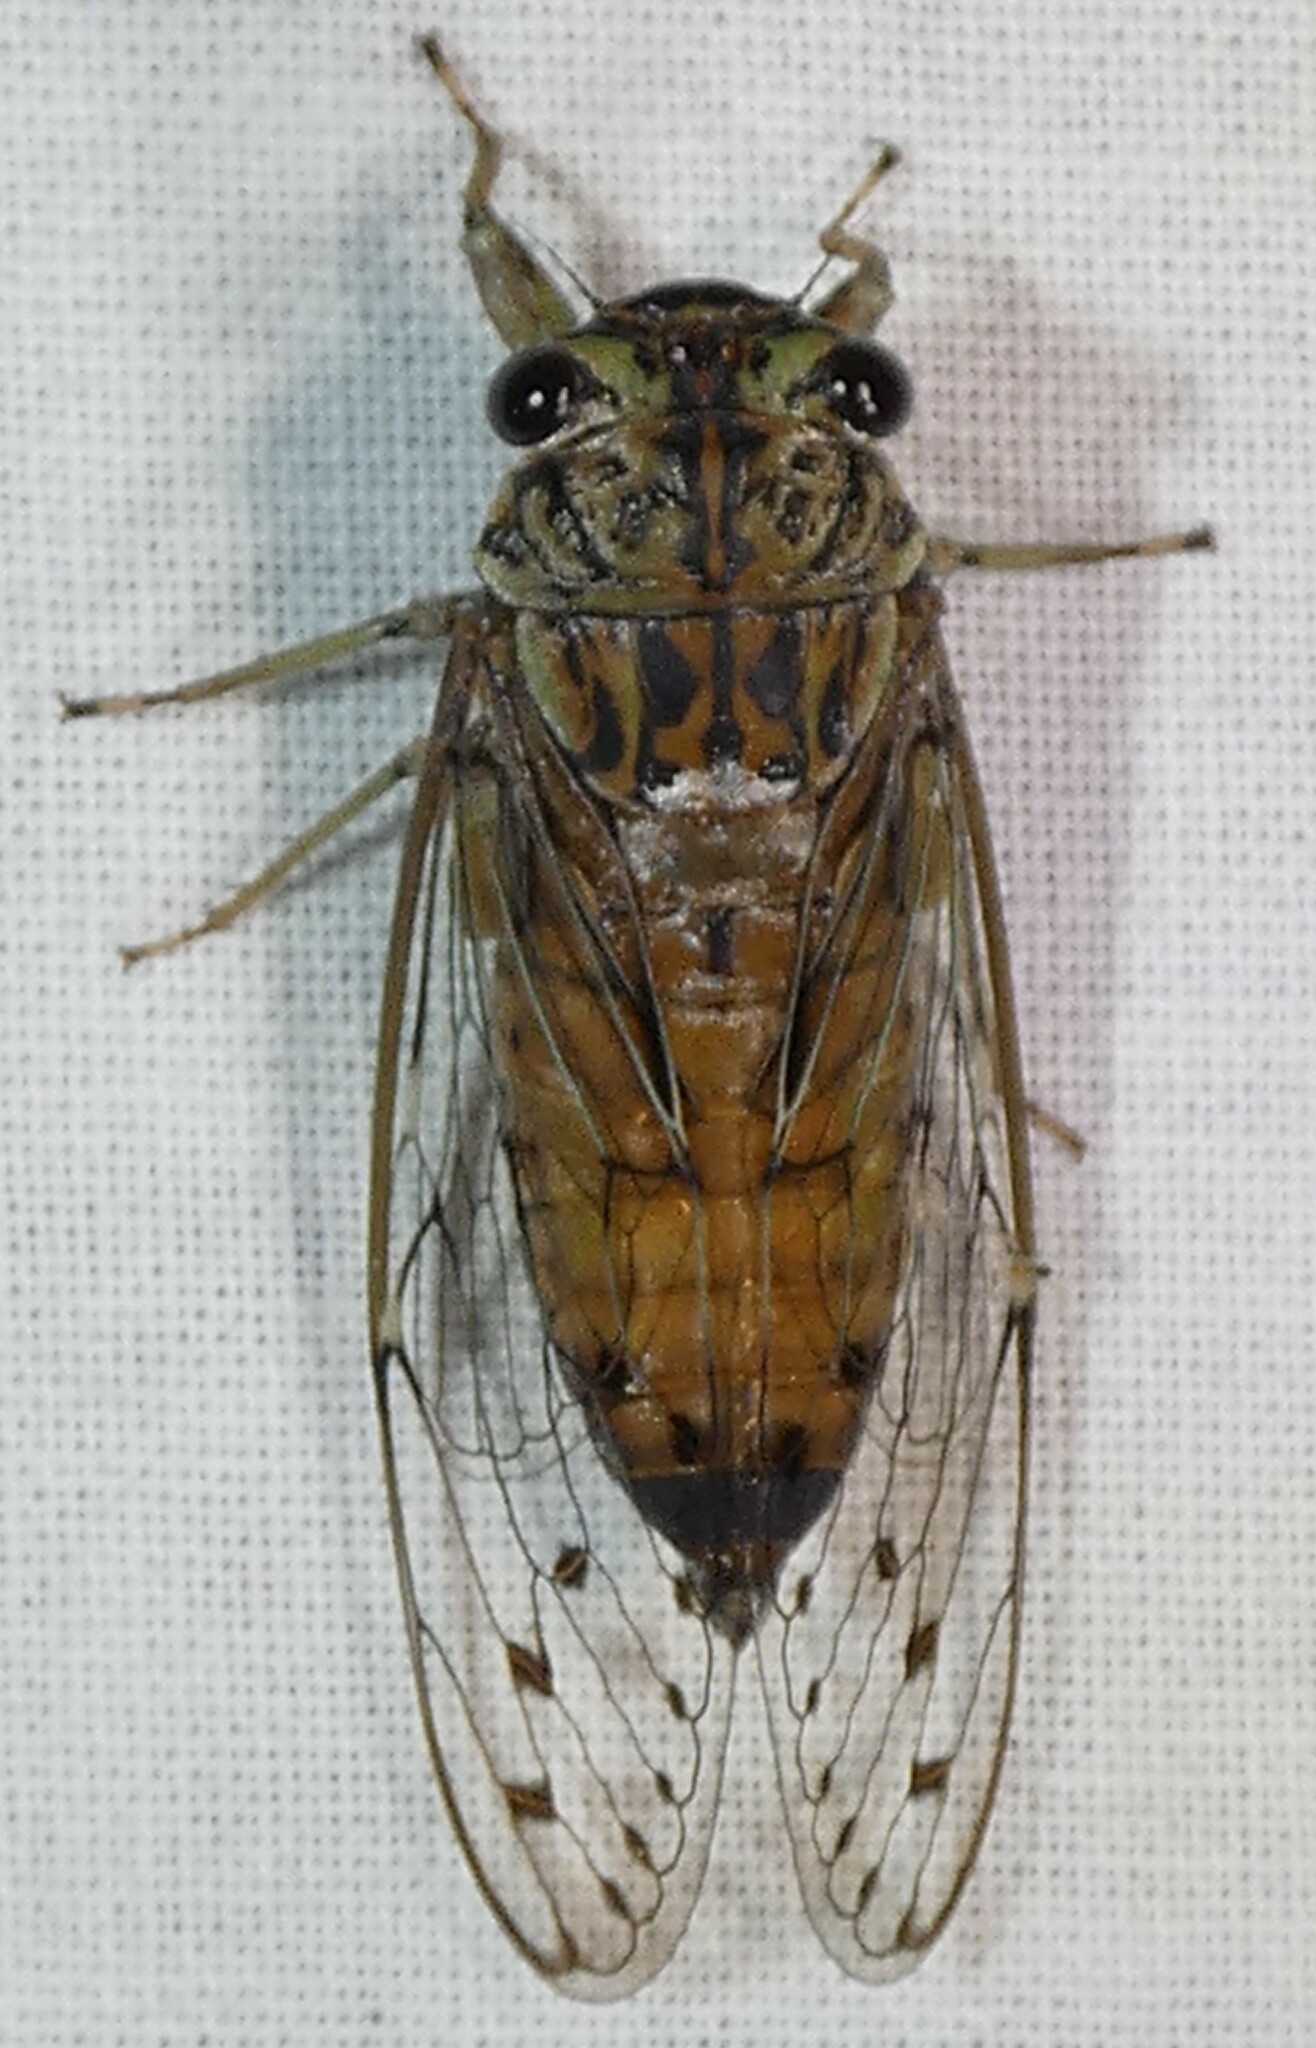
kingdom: Animalia
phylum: Arthropoda
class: Insecta
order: Hemiptera
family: Cicadidae
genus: Neocicada
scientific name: Neocicada hieroglyphica
